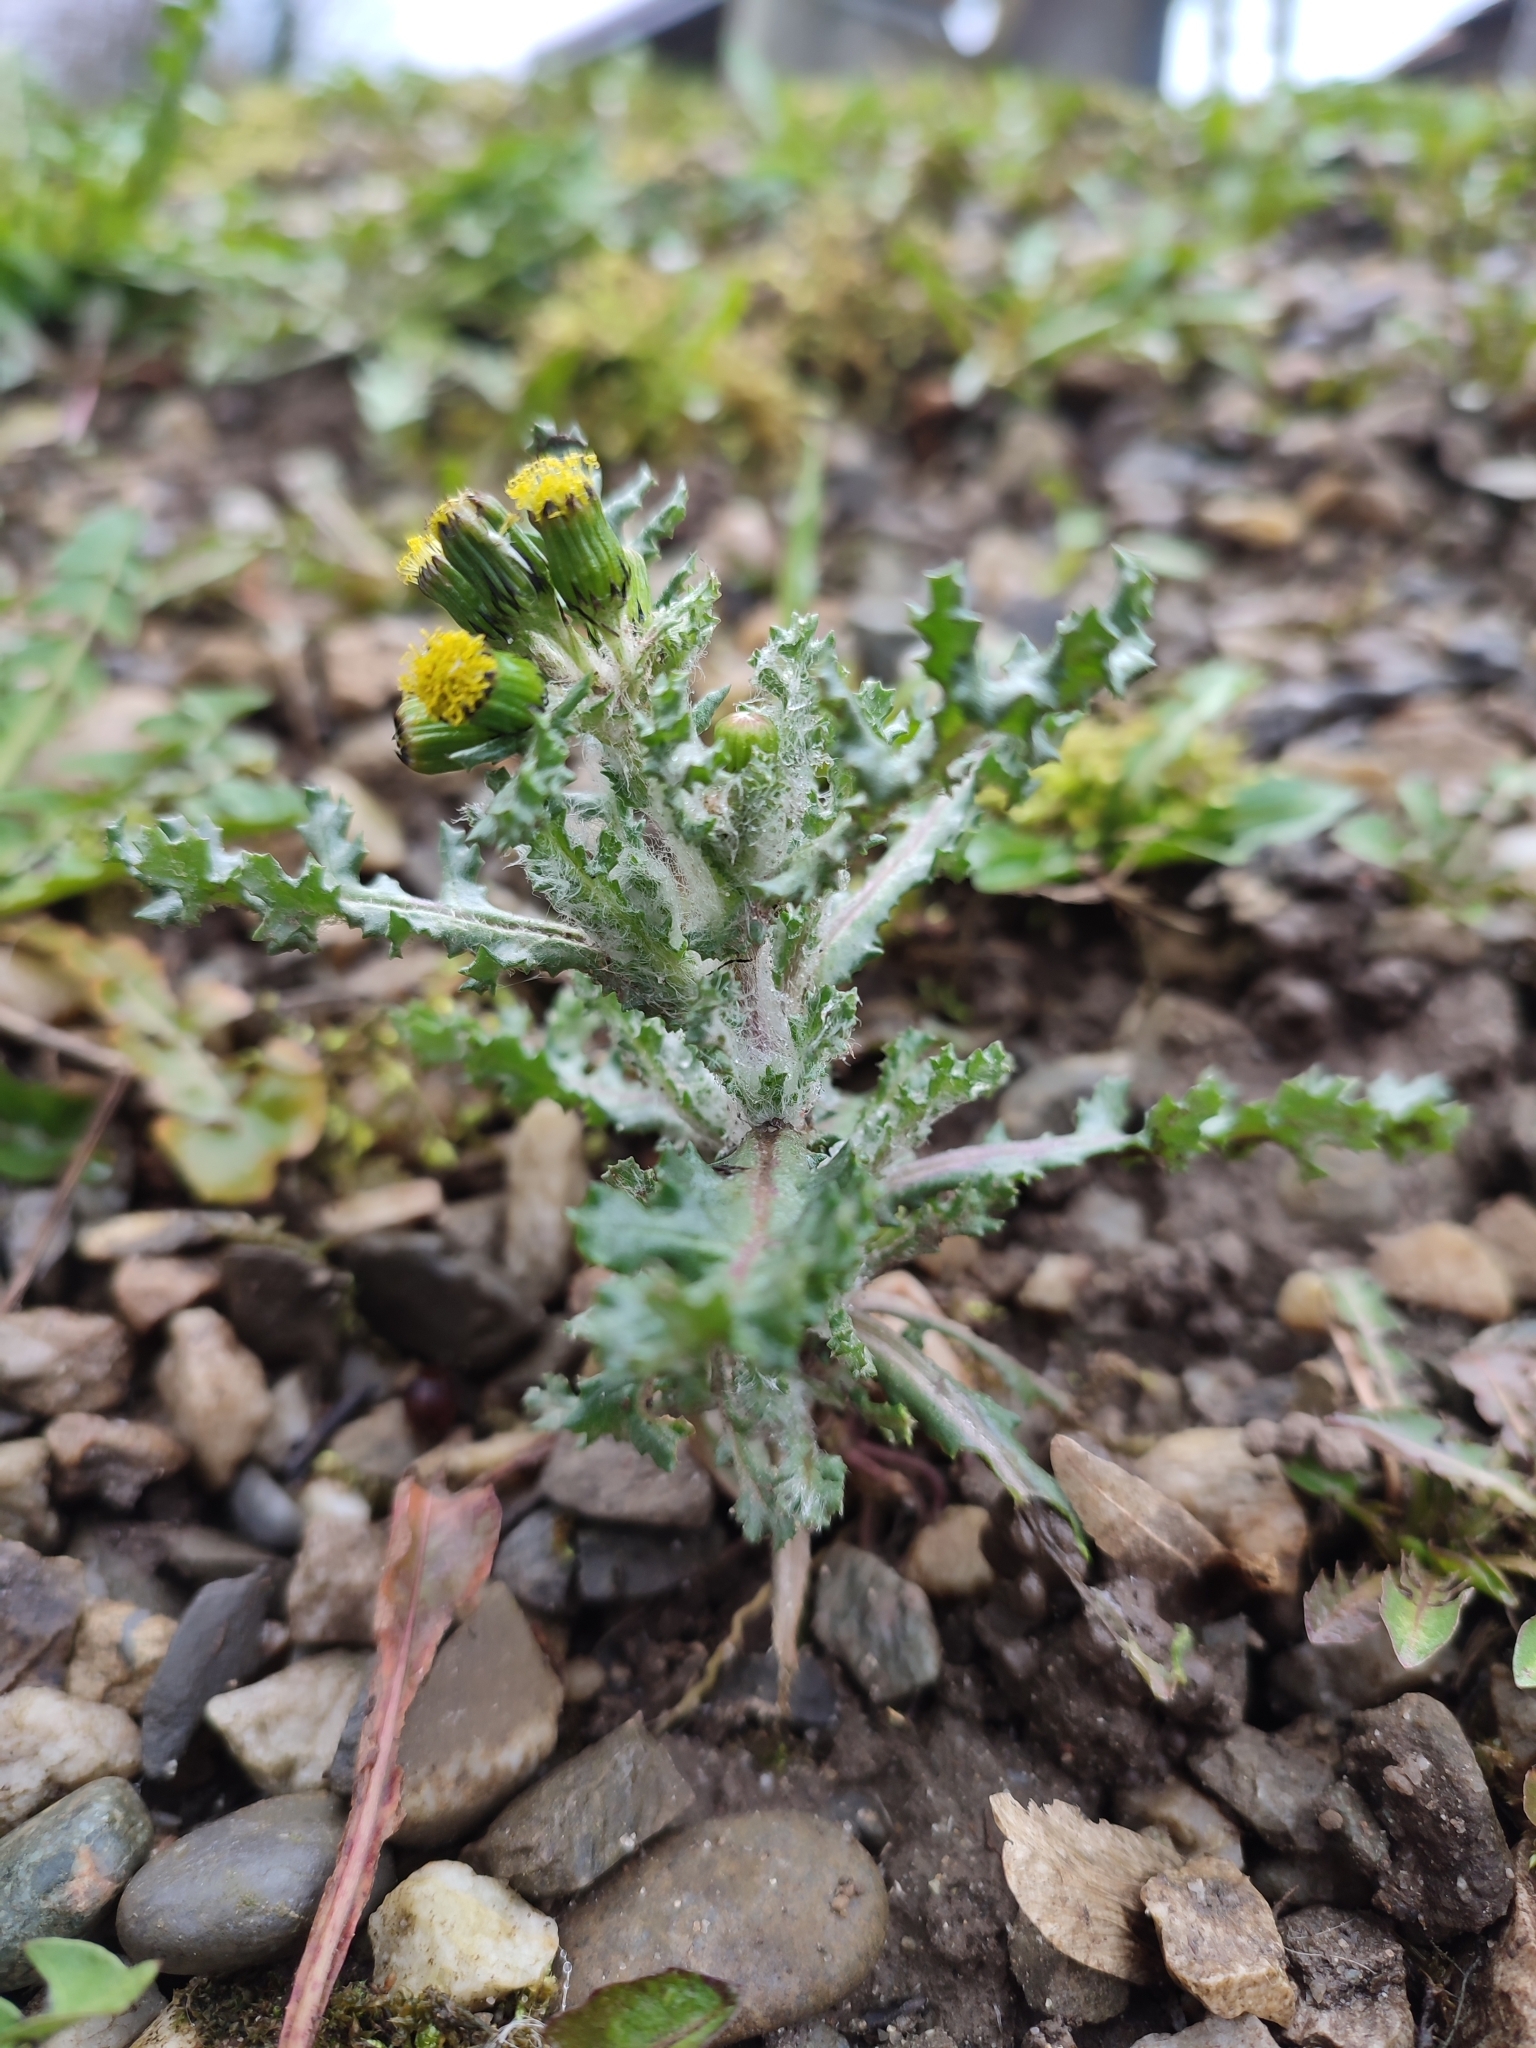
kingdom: Plantae
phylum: Tracheophyta
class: Magnoliopsida
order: Asterales
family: Asteraceae
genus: Senecio
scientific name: Senecio vulgaris
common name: Old-man-in-the-spring
